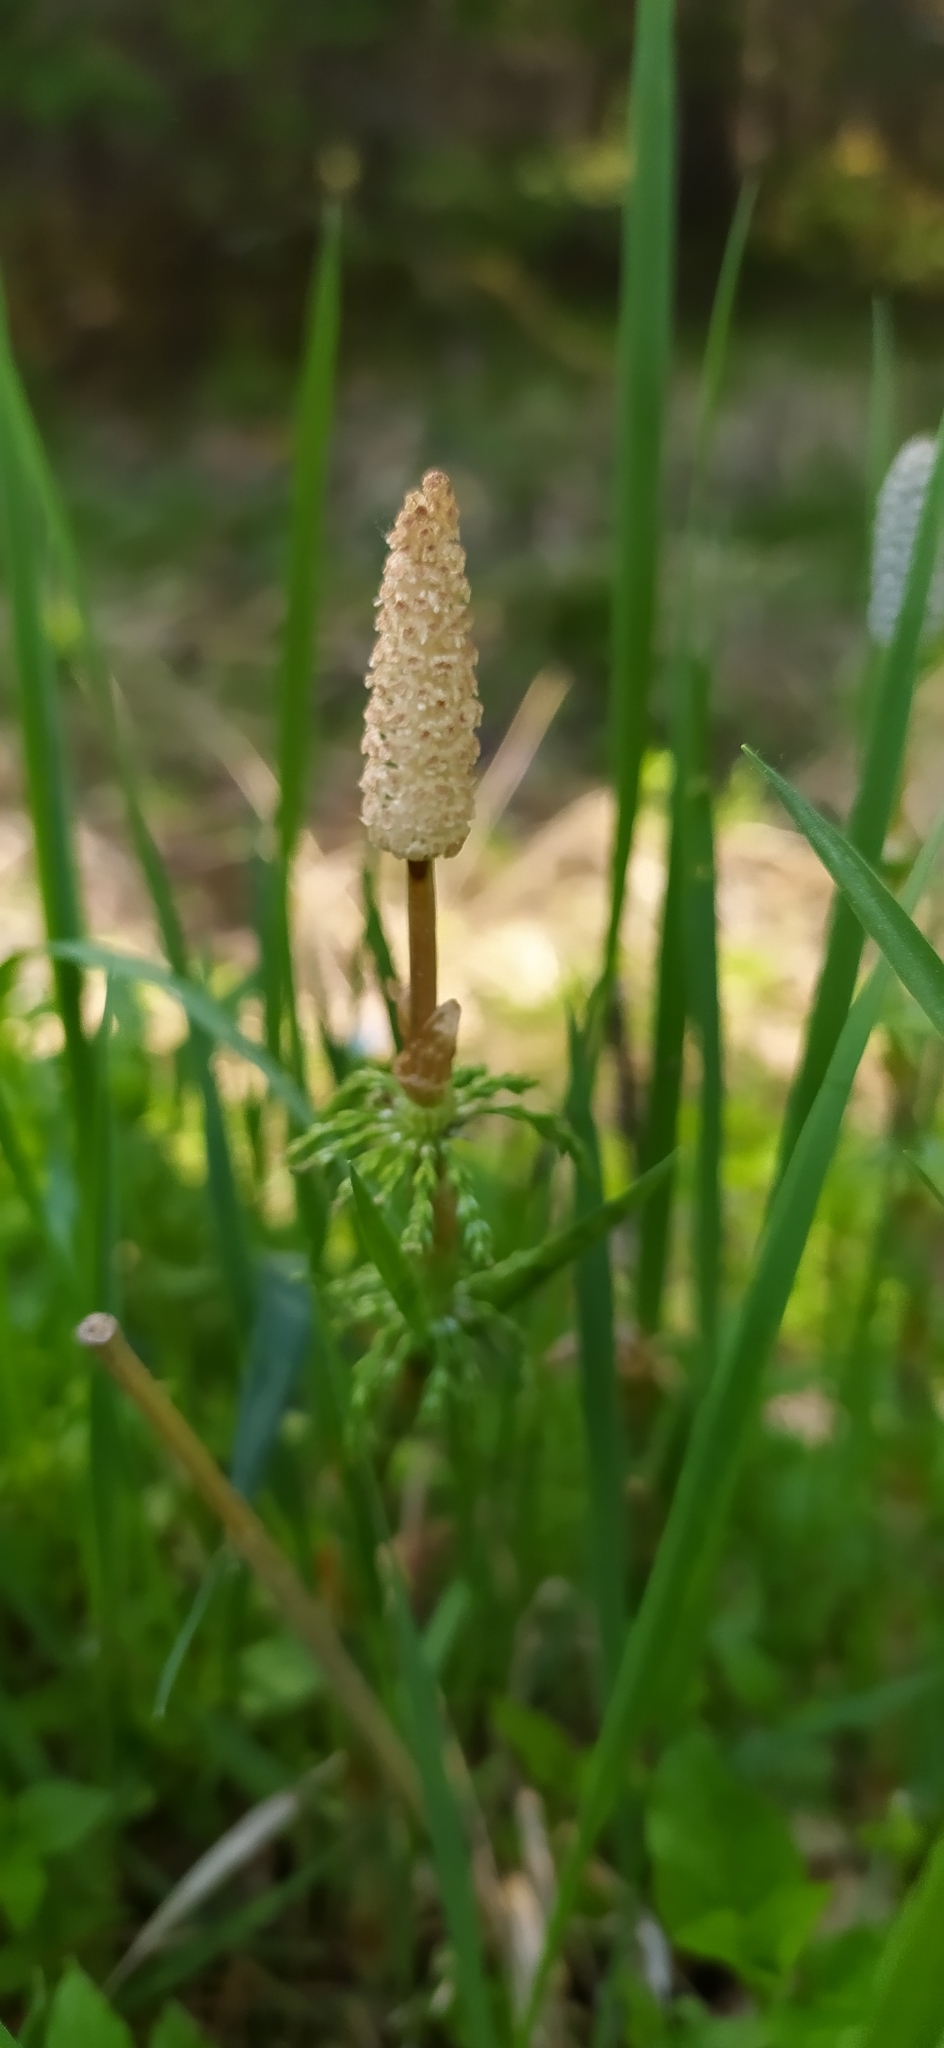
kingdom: Plantae
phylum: Tracheophyta
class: Polypodiopsida
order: Equisetales
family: Equisetaceae
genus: Equisetum
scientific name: Equisetum sylvaticum
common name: Wood horsetail
